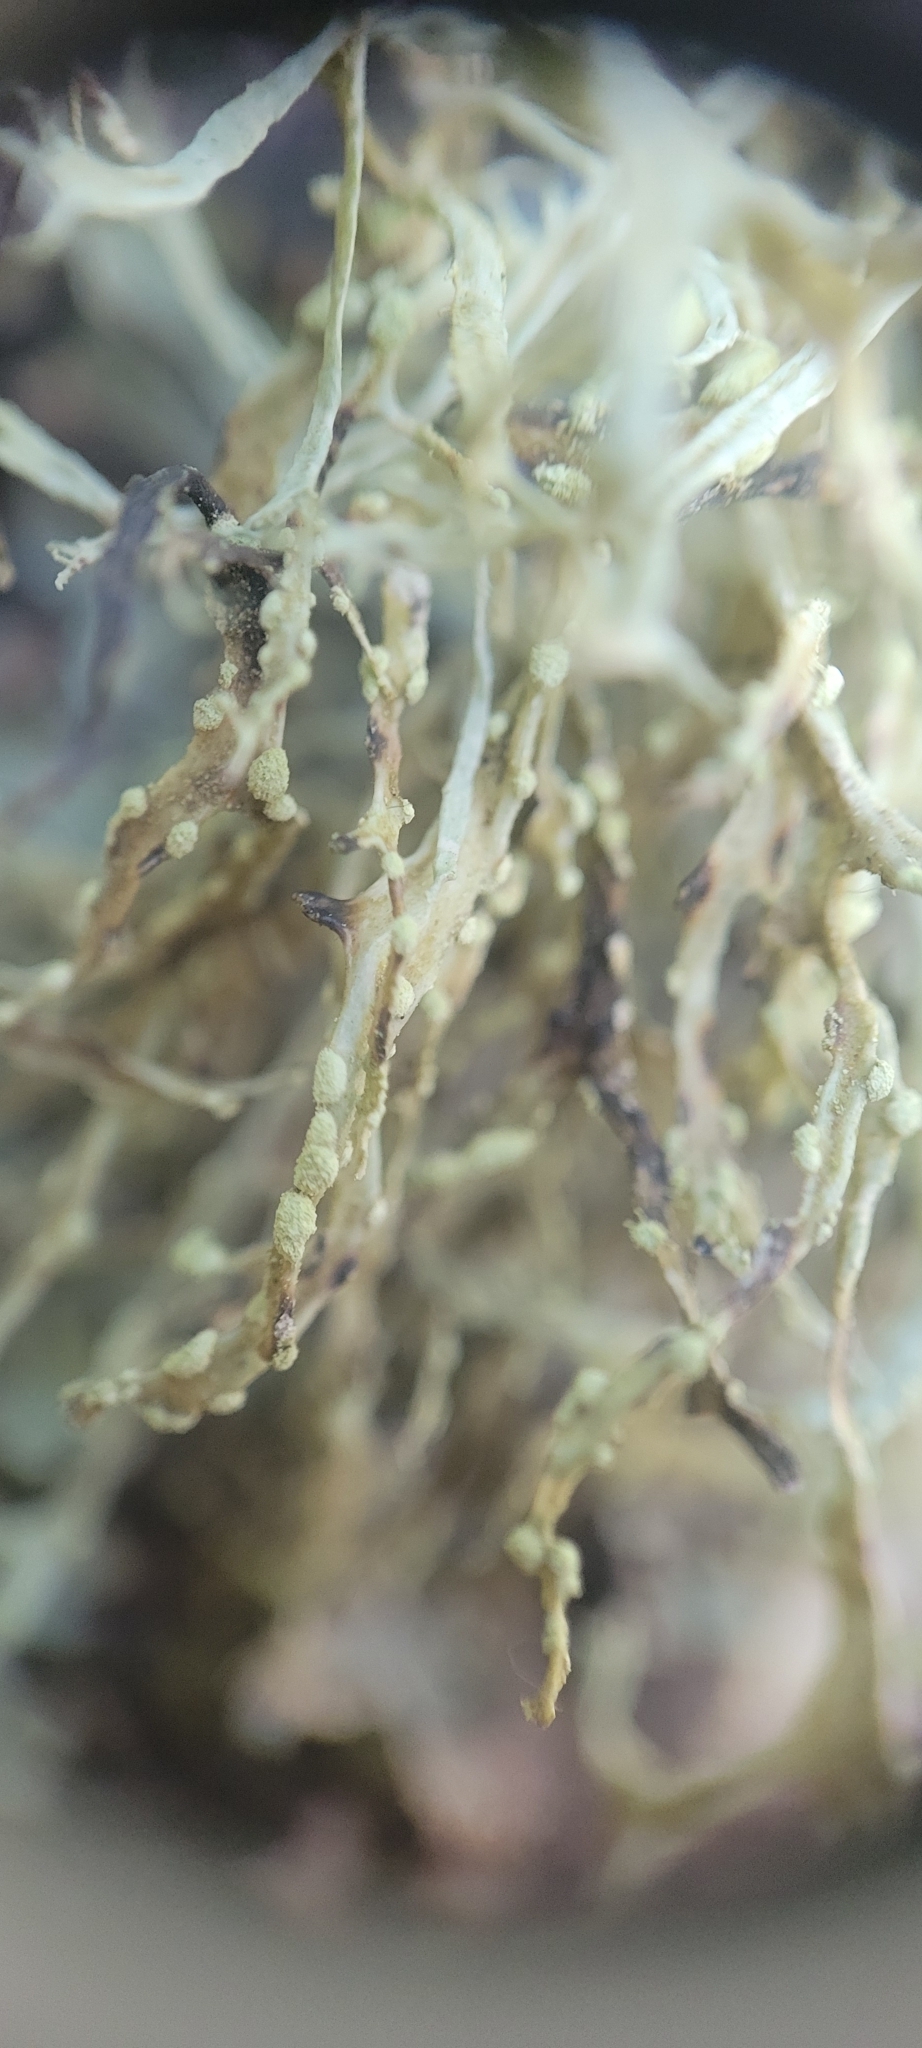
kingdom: Fungi
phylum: Ascomycota
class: Lecanoromycetes
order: Lecanorales
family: Ramalinaceae
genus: Ramalina
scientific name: Ramalina farinacea
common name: Farinose cartilage lichen
